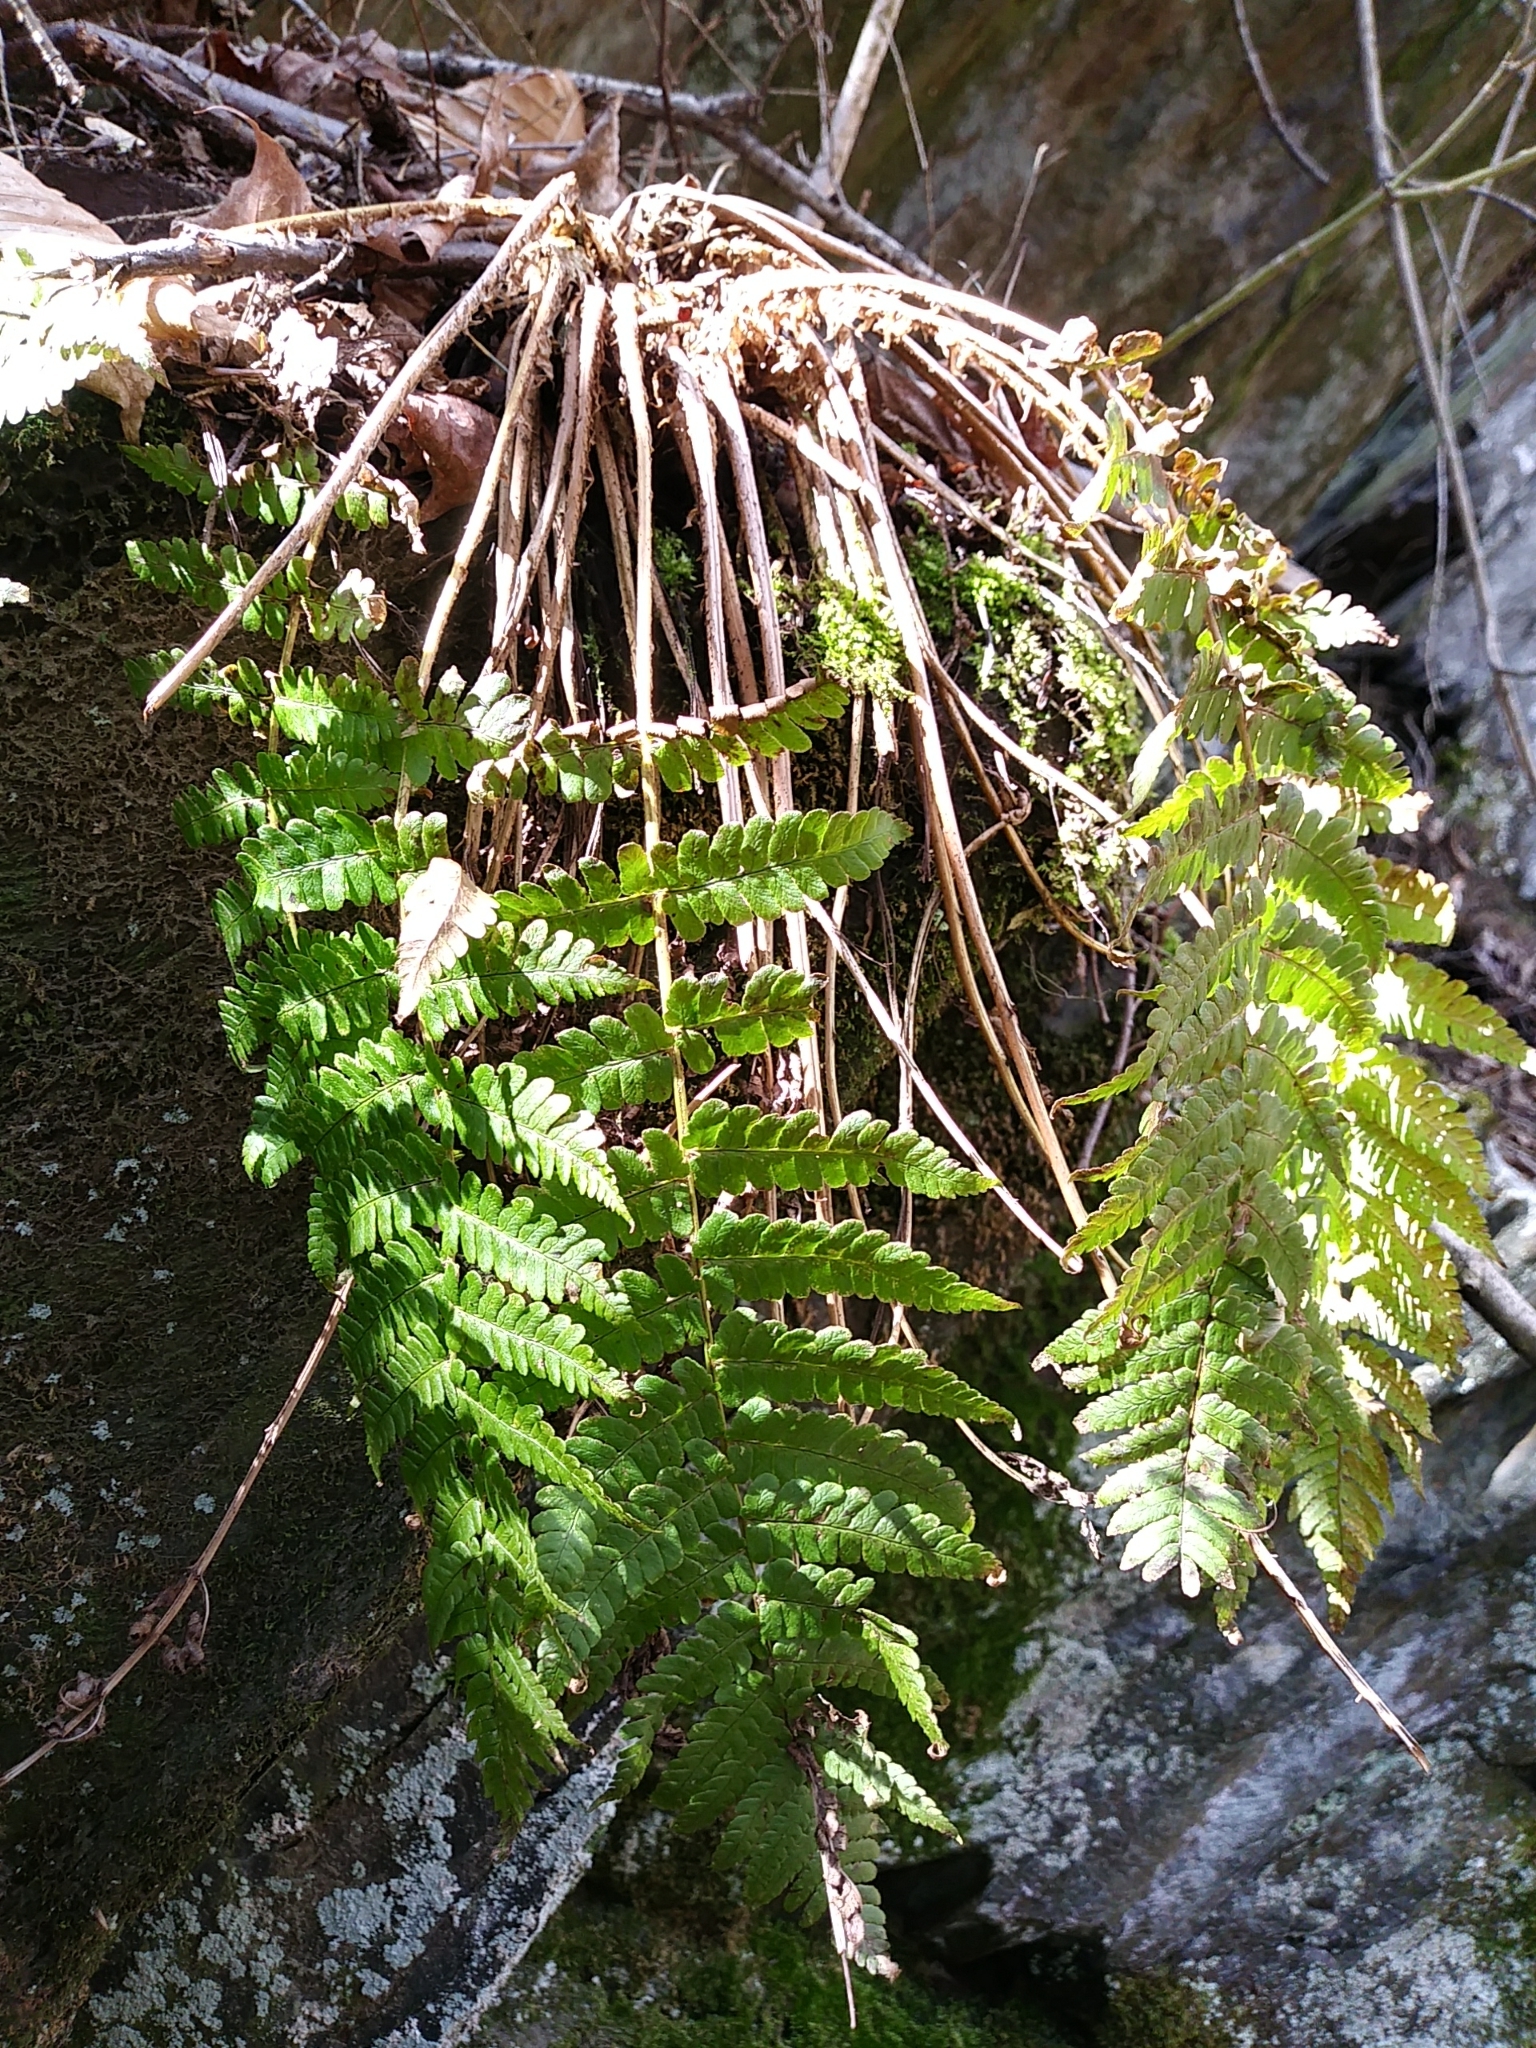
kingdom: Plantae
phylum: Tracheophyta
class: Polypodiopsida
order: Polypodiales
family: Dryopteridaceae
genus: Dryopteris
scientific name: Dryopteris marginalis
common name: Marginal wood fern
